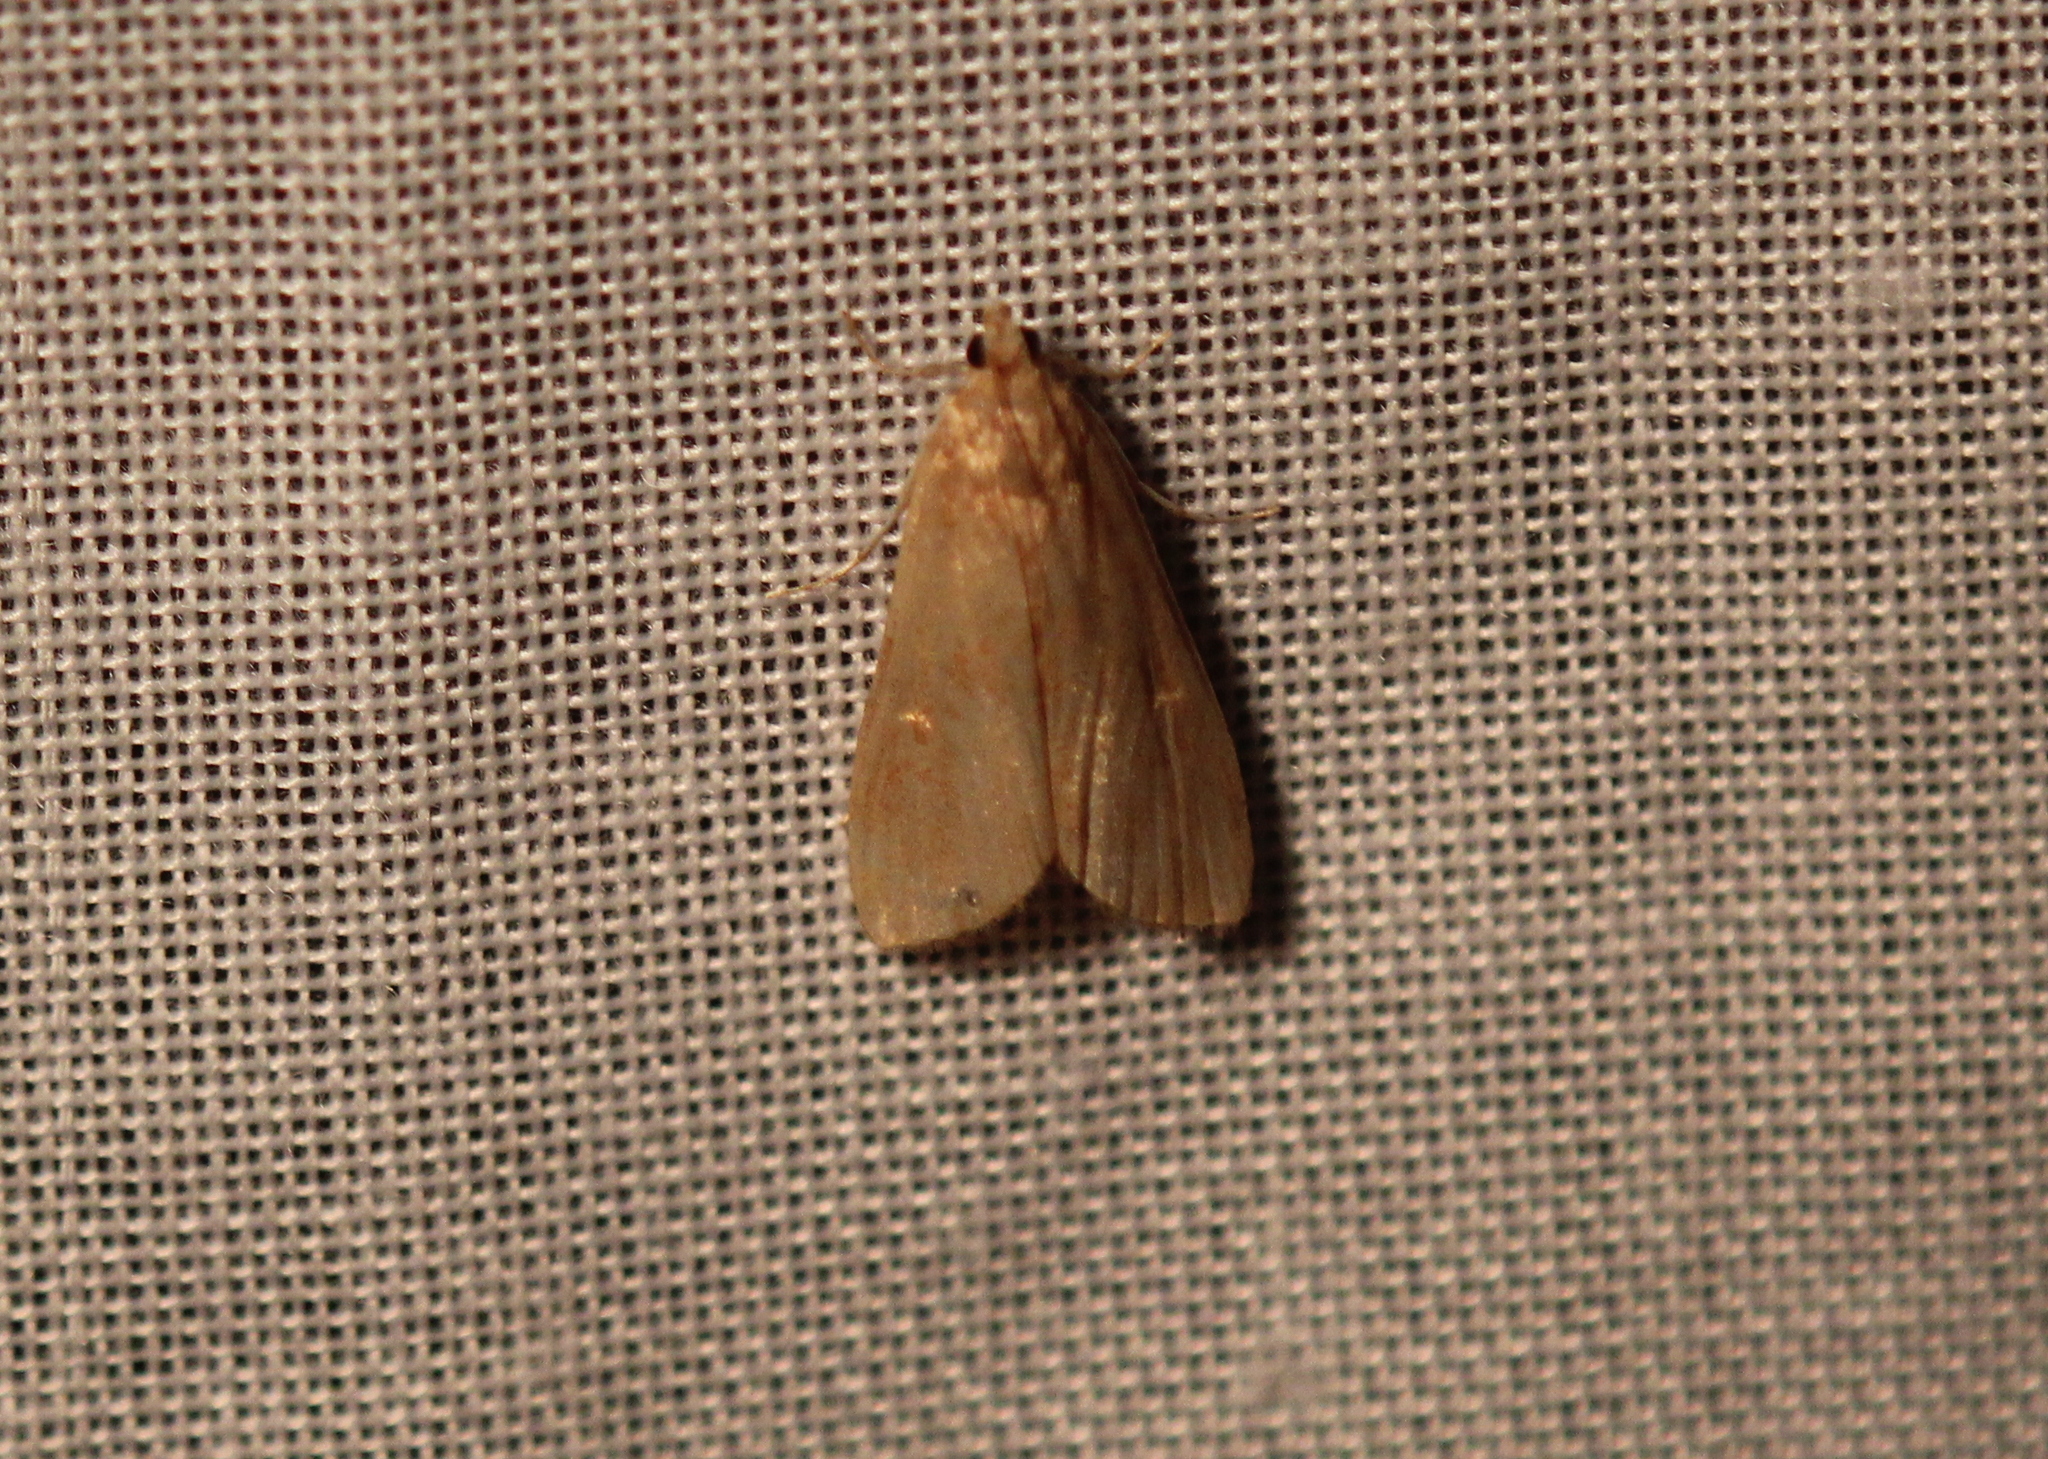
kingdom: Animalia
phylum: Arthropoda
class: Insecta
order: Lepidoptera
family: Crambidae
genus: Elophila
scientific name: Elophila gyralis
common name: Waterlily borer moth
